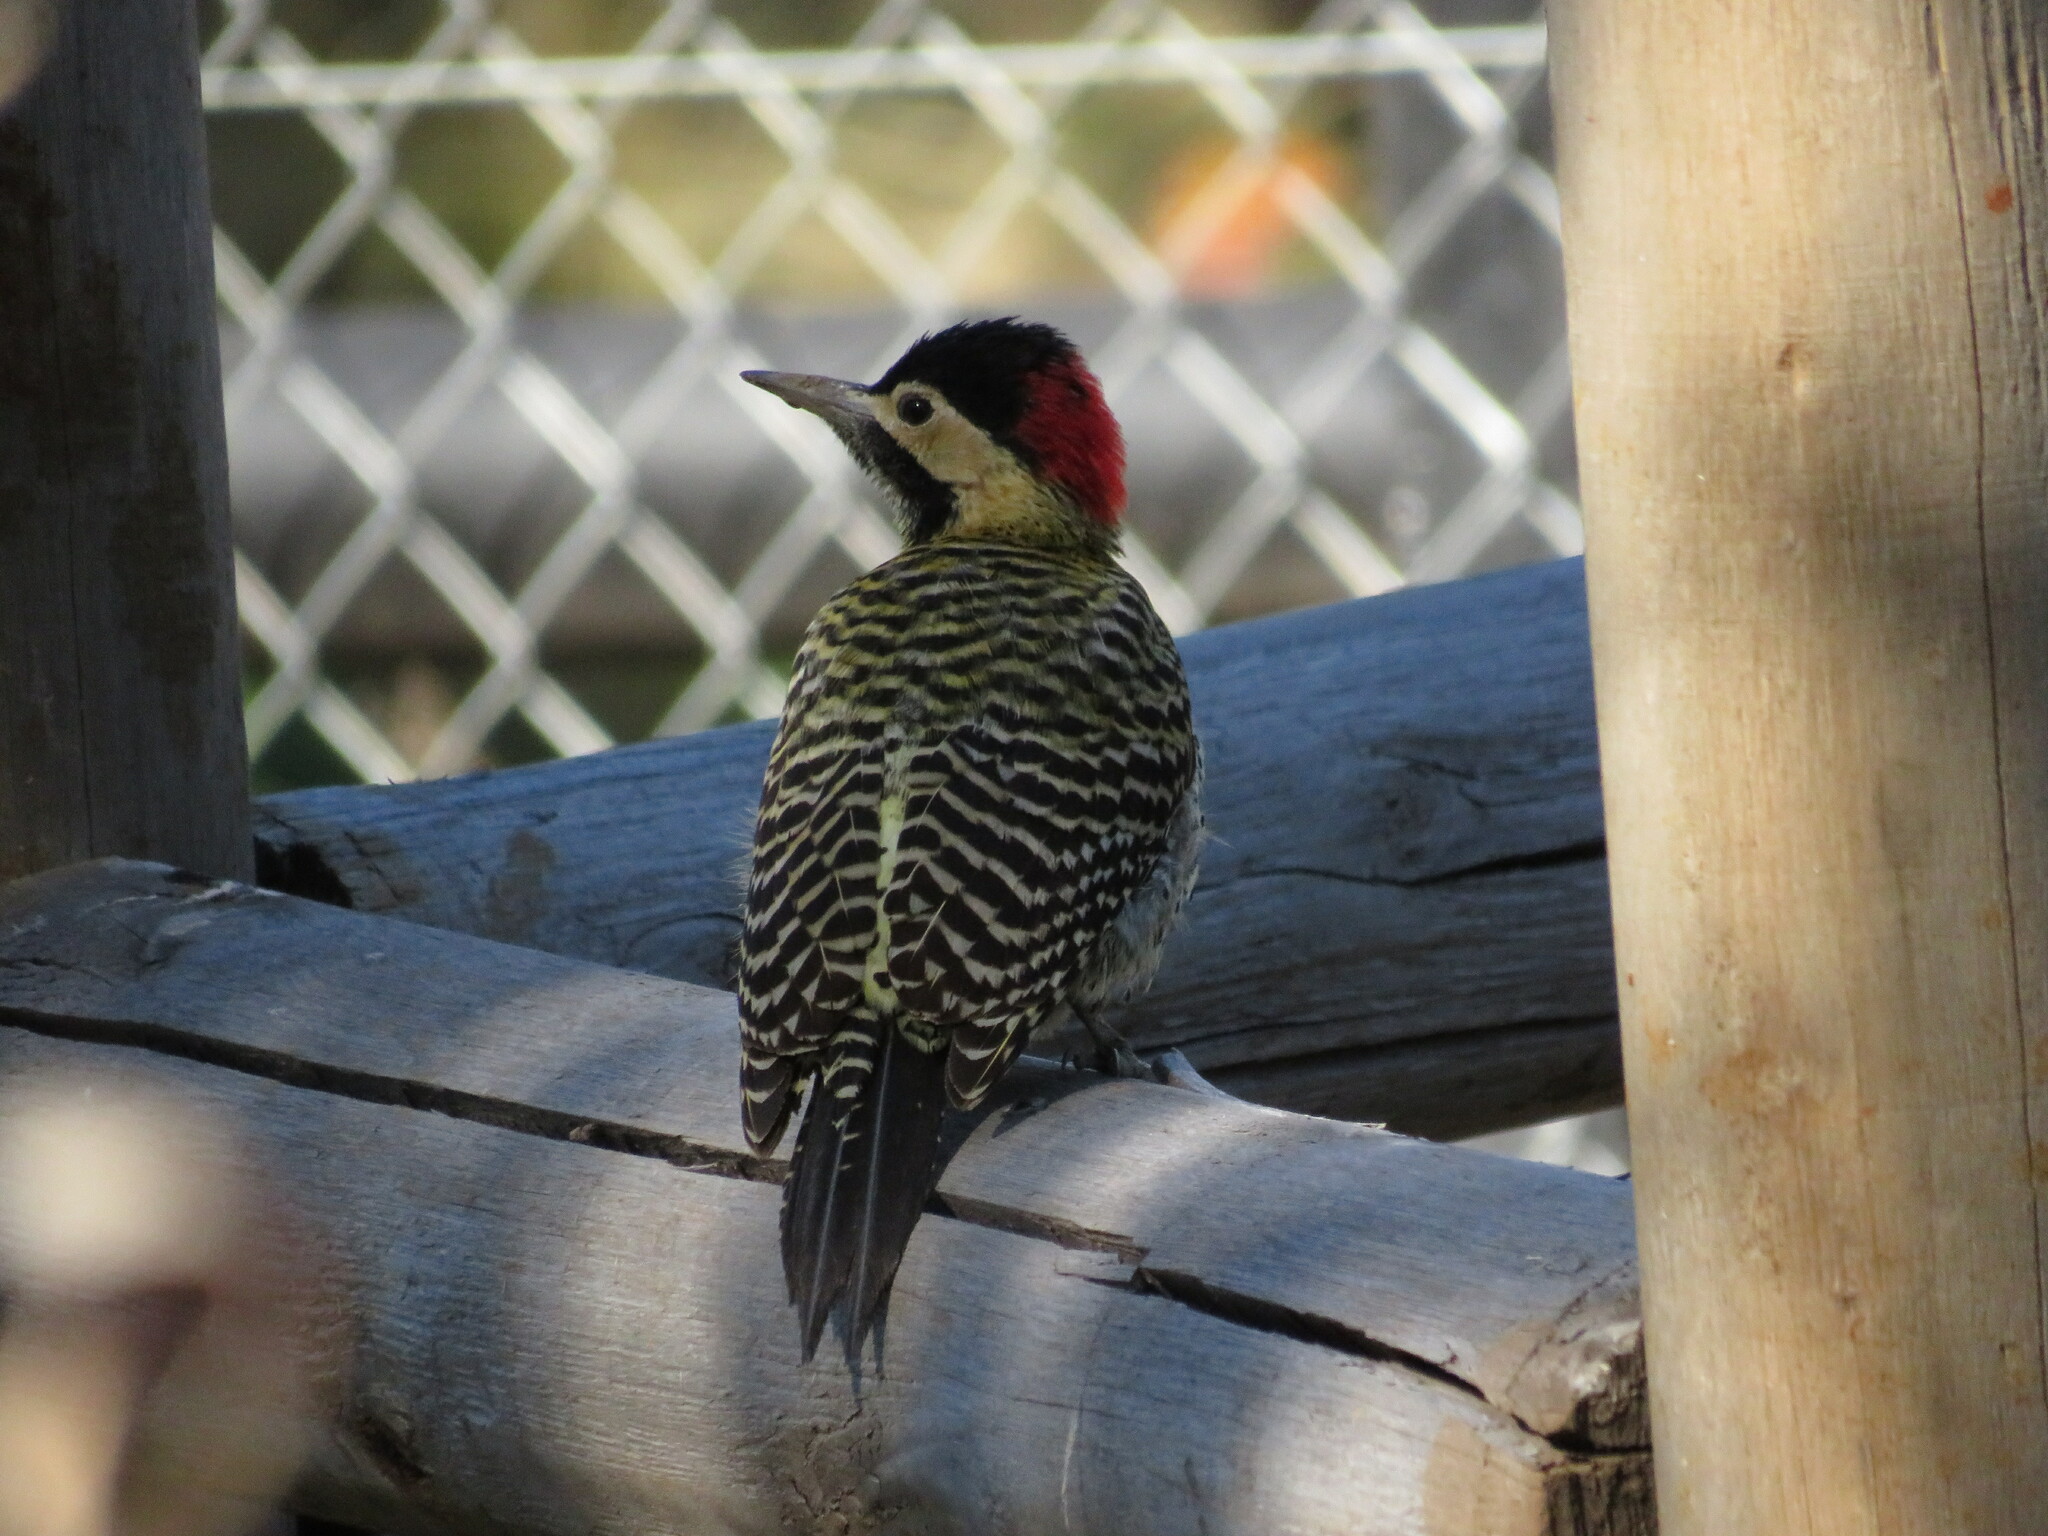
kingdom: Animalia
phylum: Chordata
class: Aves
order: Piciformes
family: Picidae
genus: Colaptes
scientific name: Colaptes melanochloros
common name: Green-barred woodpecker
